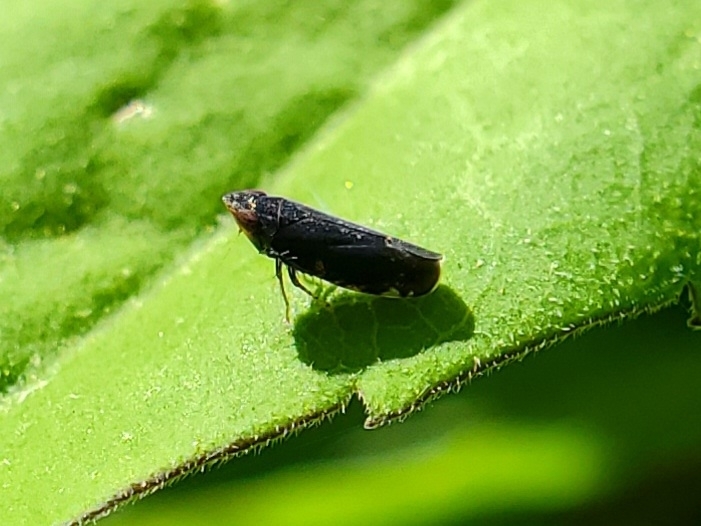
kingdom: Animalia
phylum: Arthropoda
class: Insecta
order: Hemiptera
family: Cicadellidae
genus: Scaphytopius
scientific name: Scaphytopius frontalis
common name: The yellow-faced leafhopper
